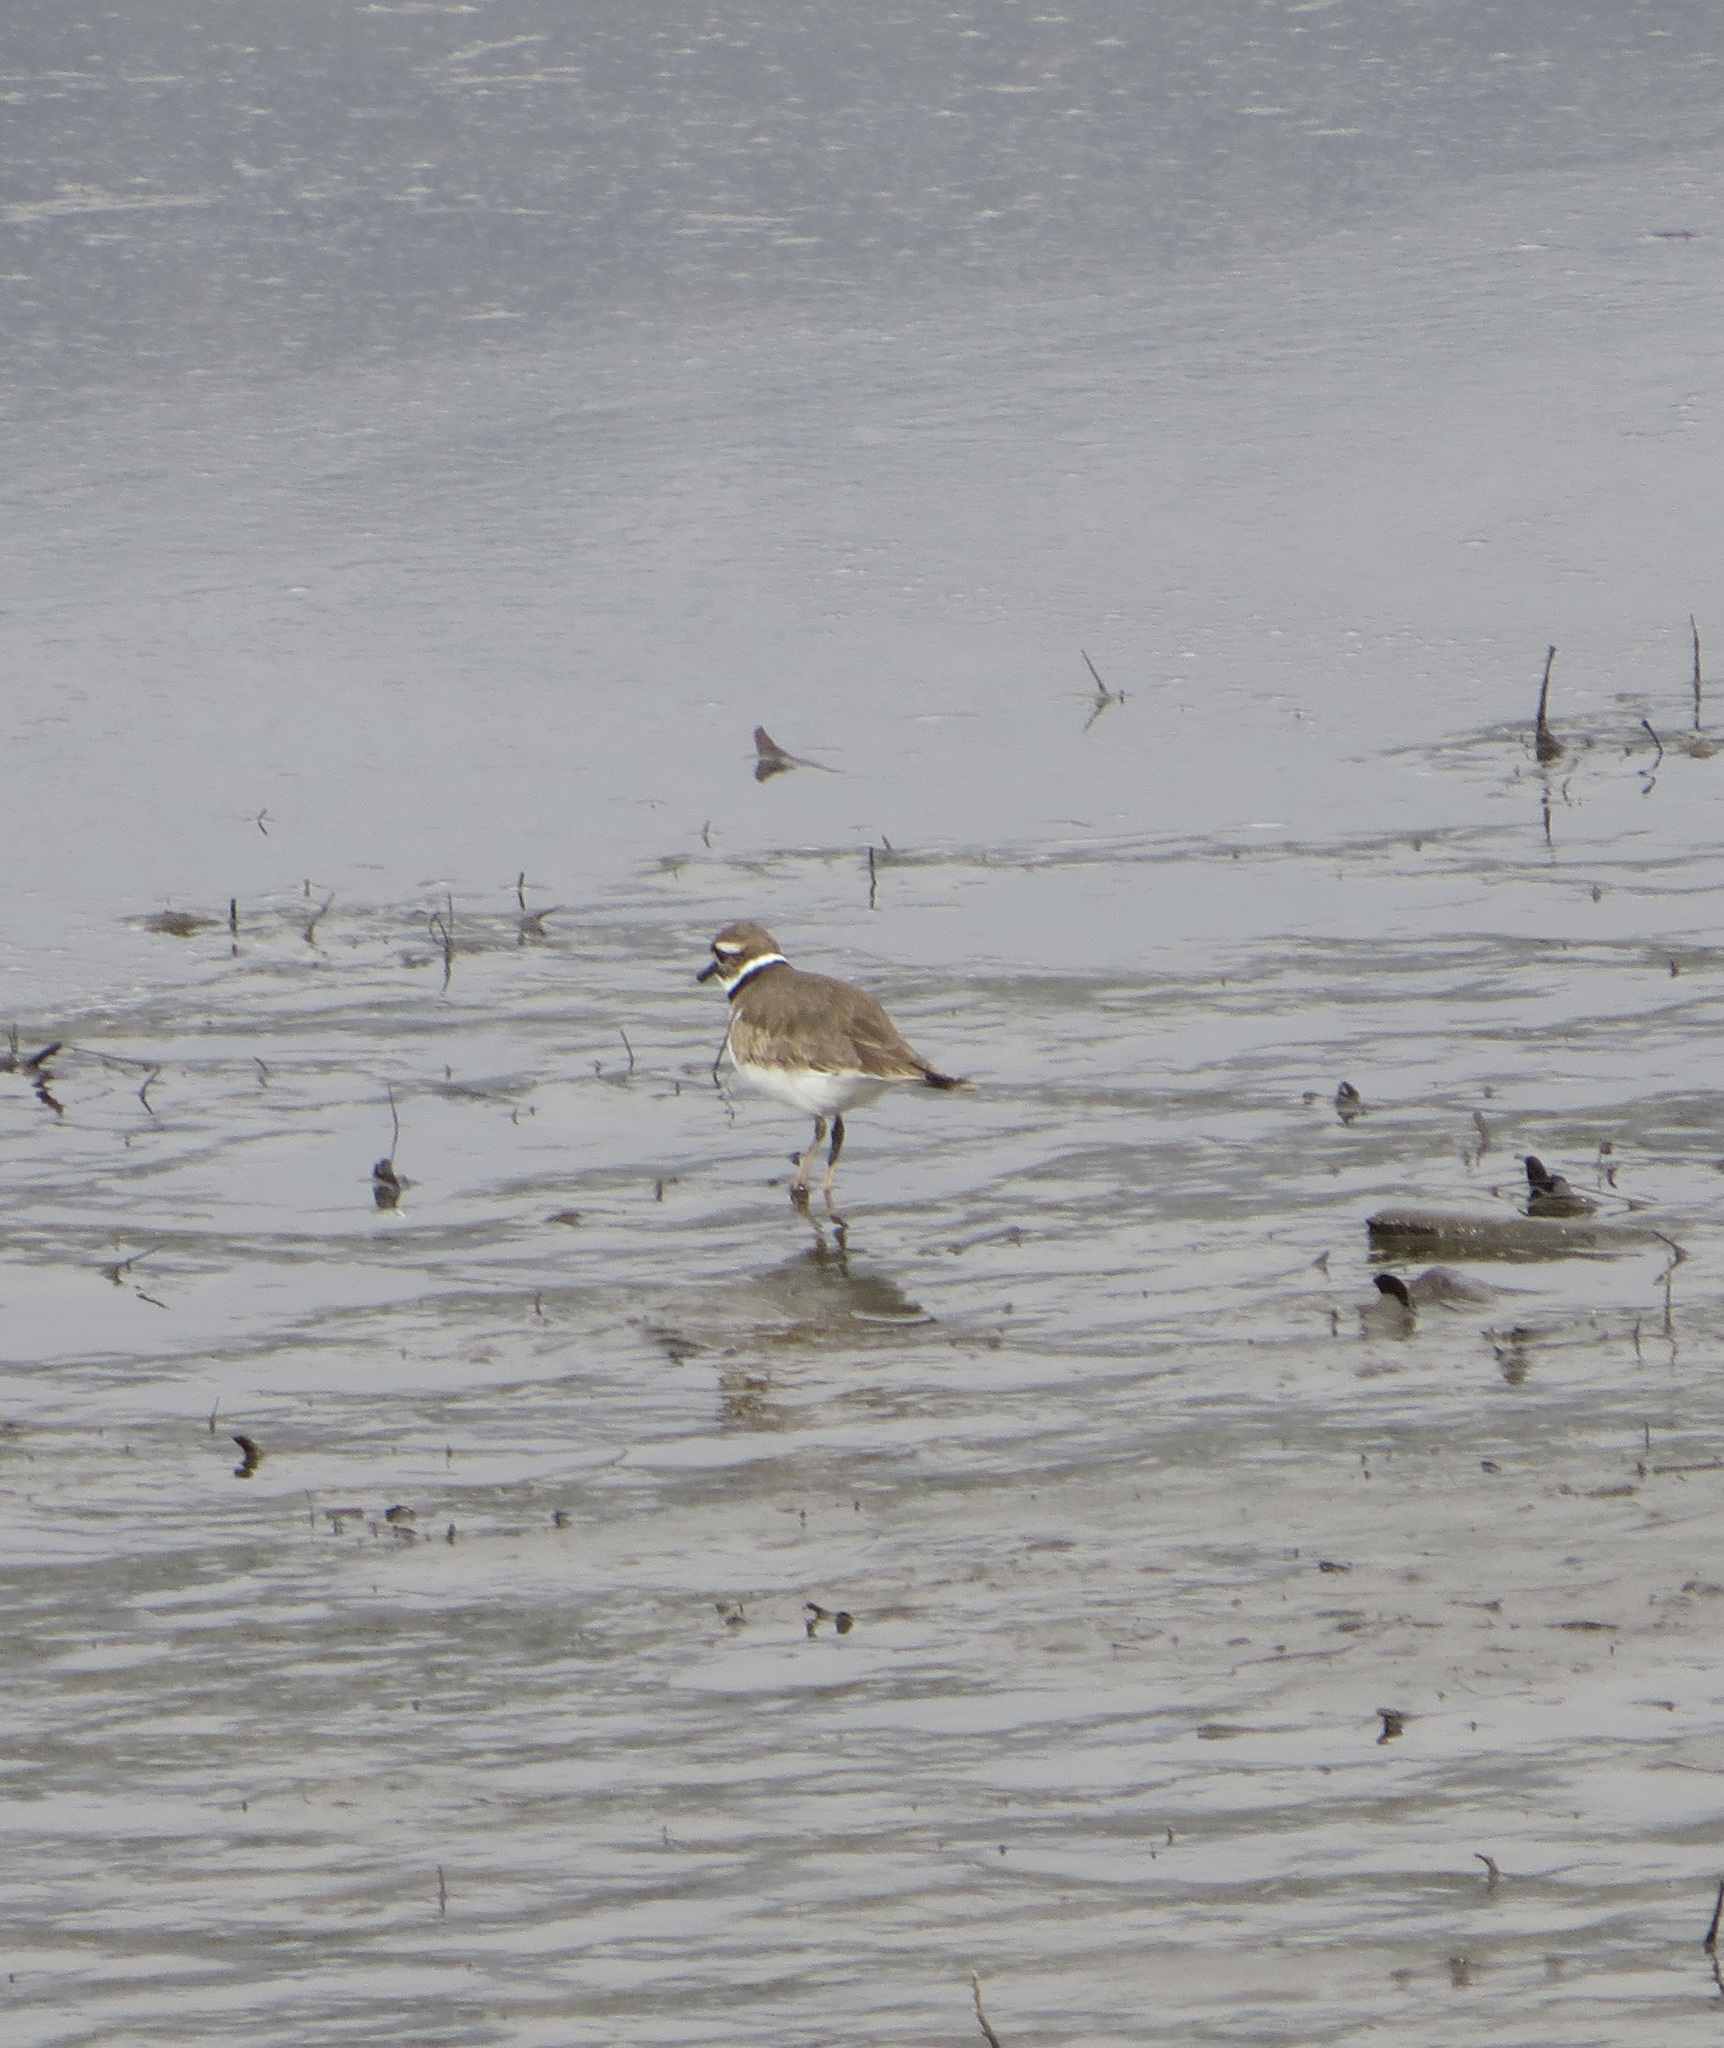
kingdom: Animalia
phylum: Chordata
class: Aves
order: Charadriiformes
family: Charadriidae
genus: Charadrius
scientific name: Charadrius vociferus
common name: Killdeer
